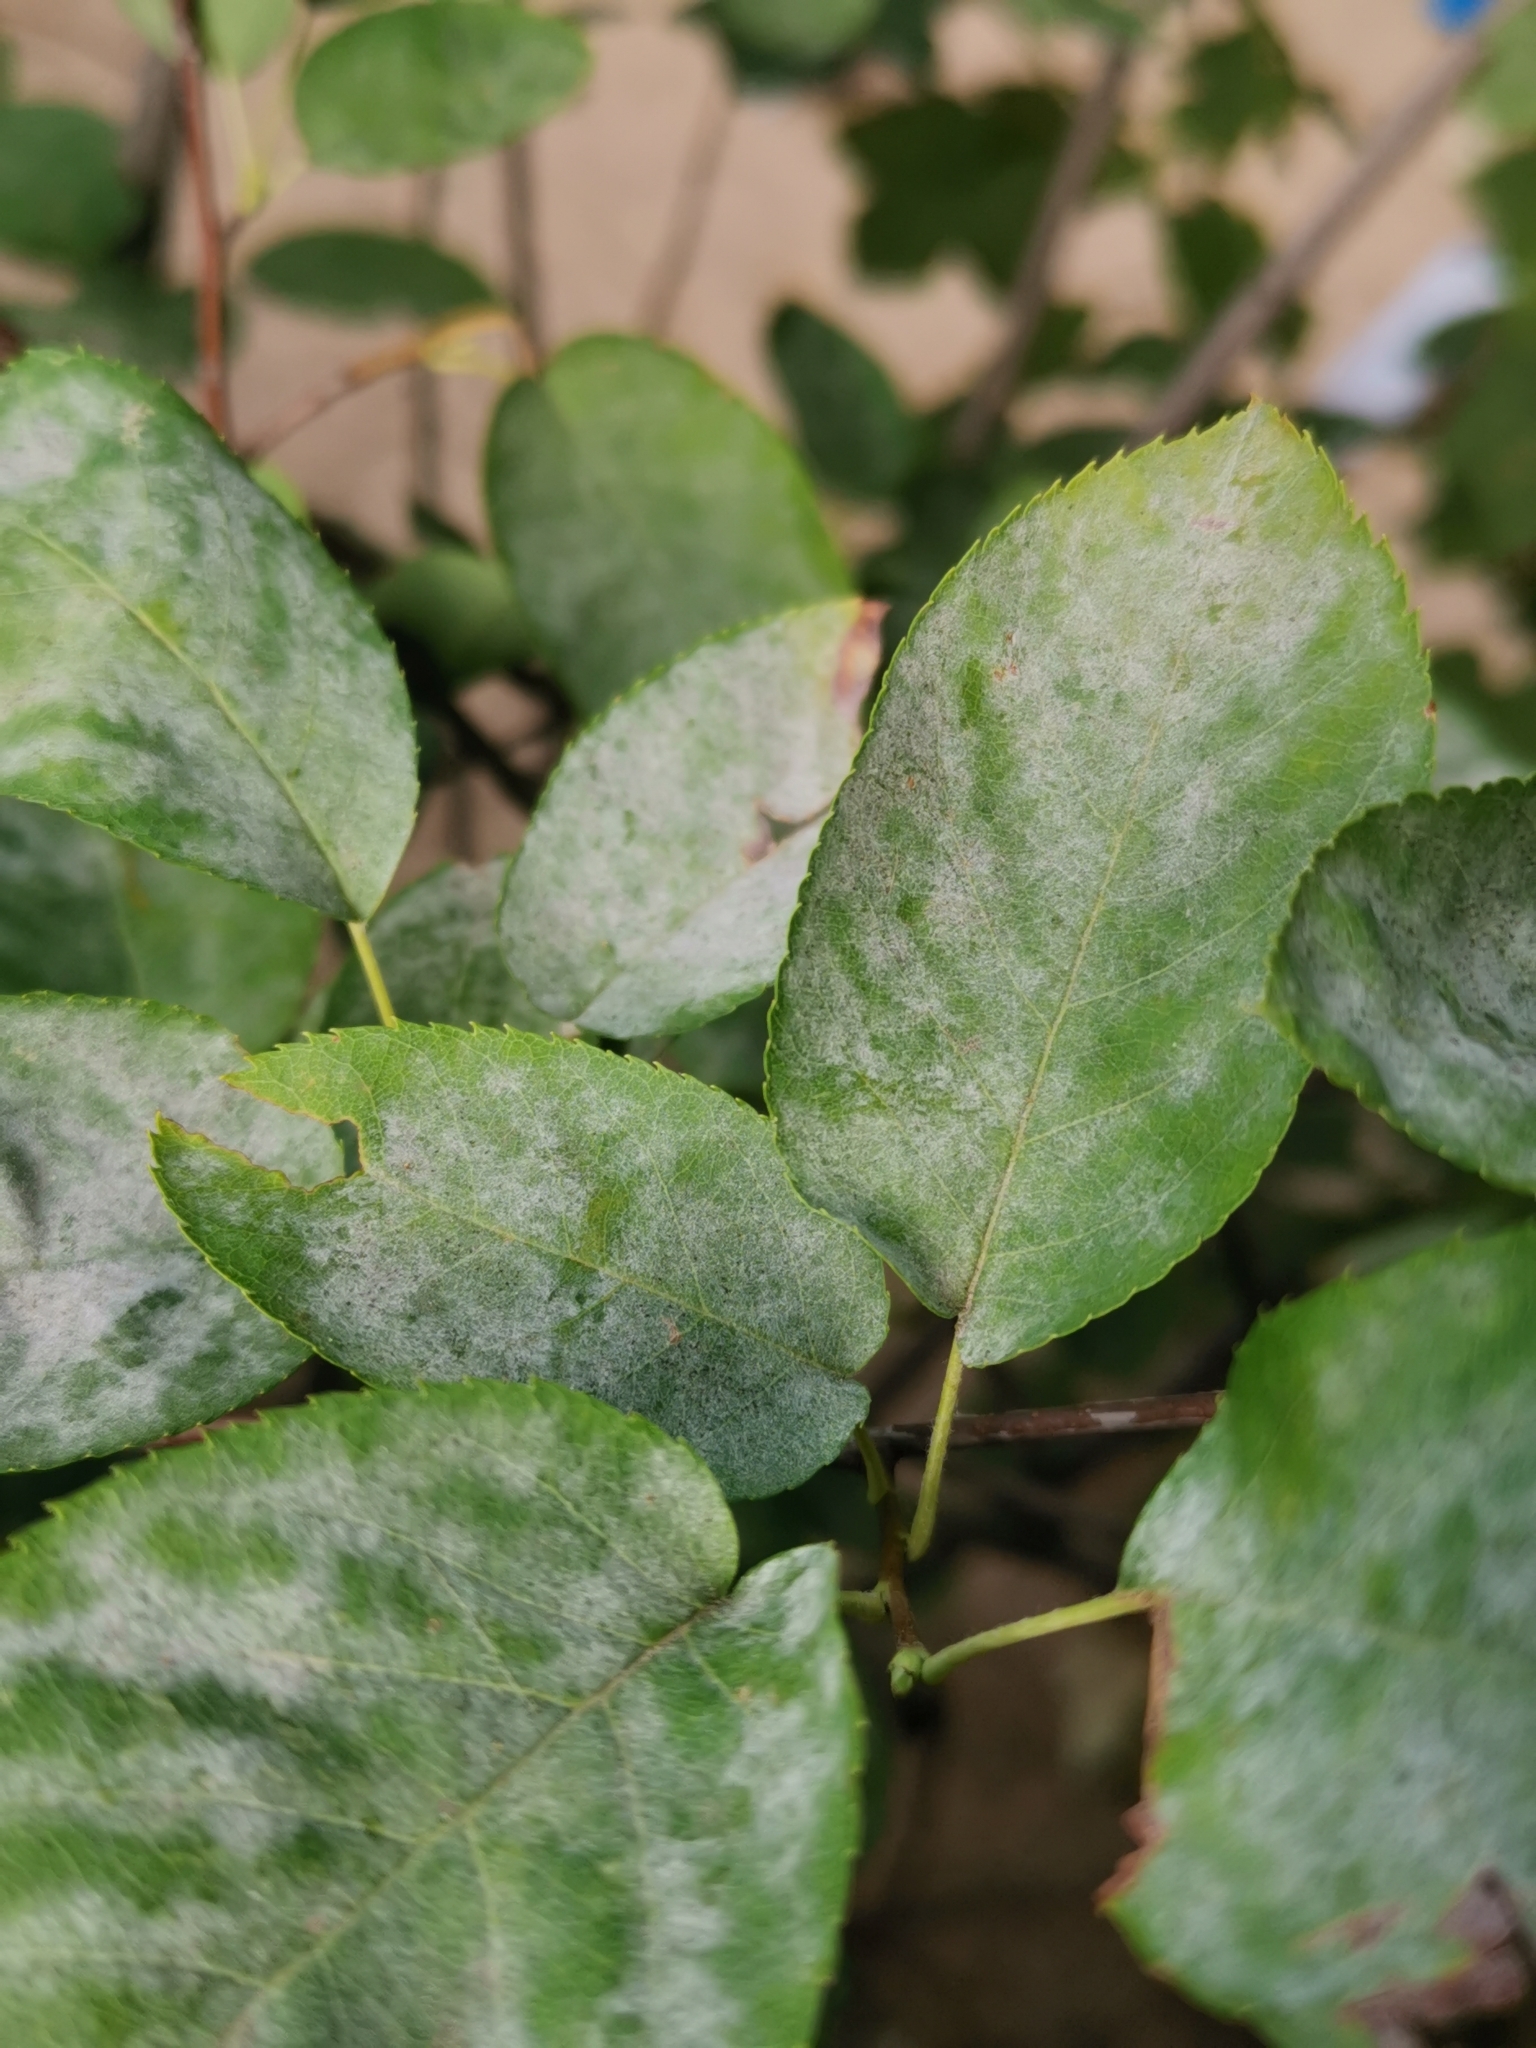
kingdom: Fungi
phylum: Ascomycota
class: Leotiomycetes
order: Helotiales
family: Erysiphaceae
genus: Podosphaera
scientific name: Podosphaera amelanchieris
